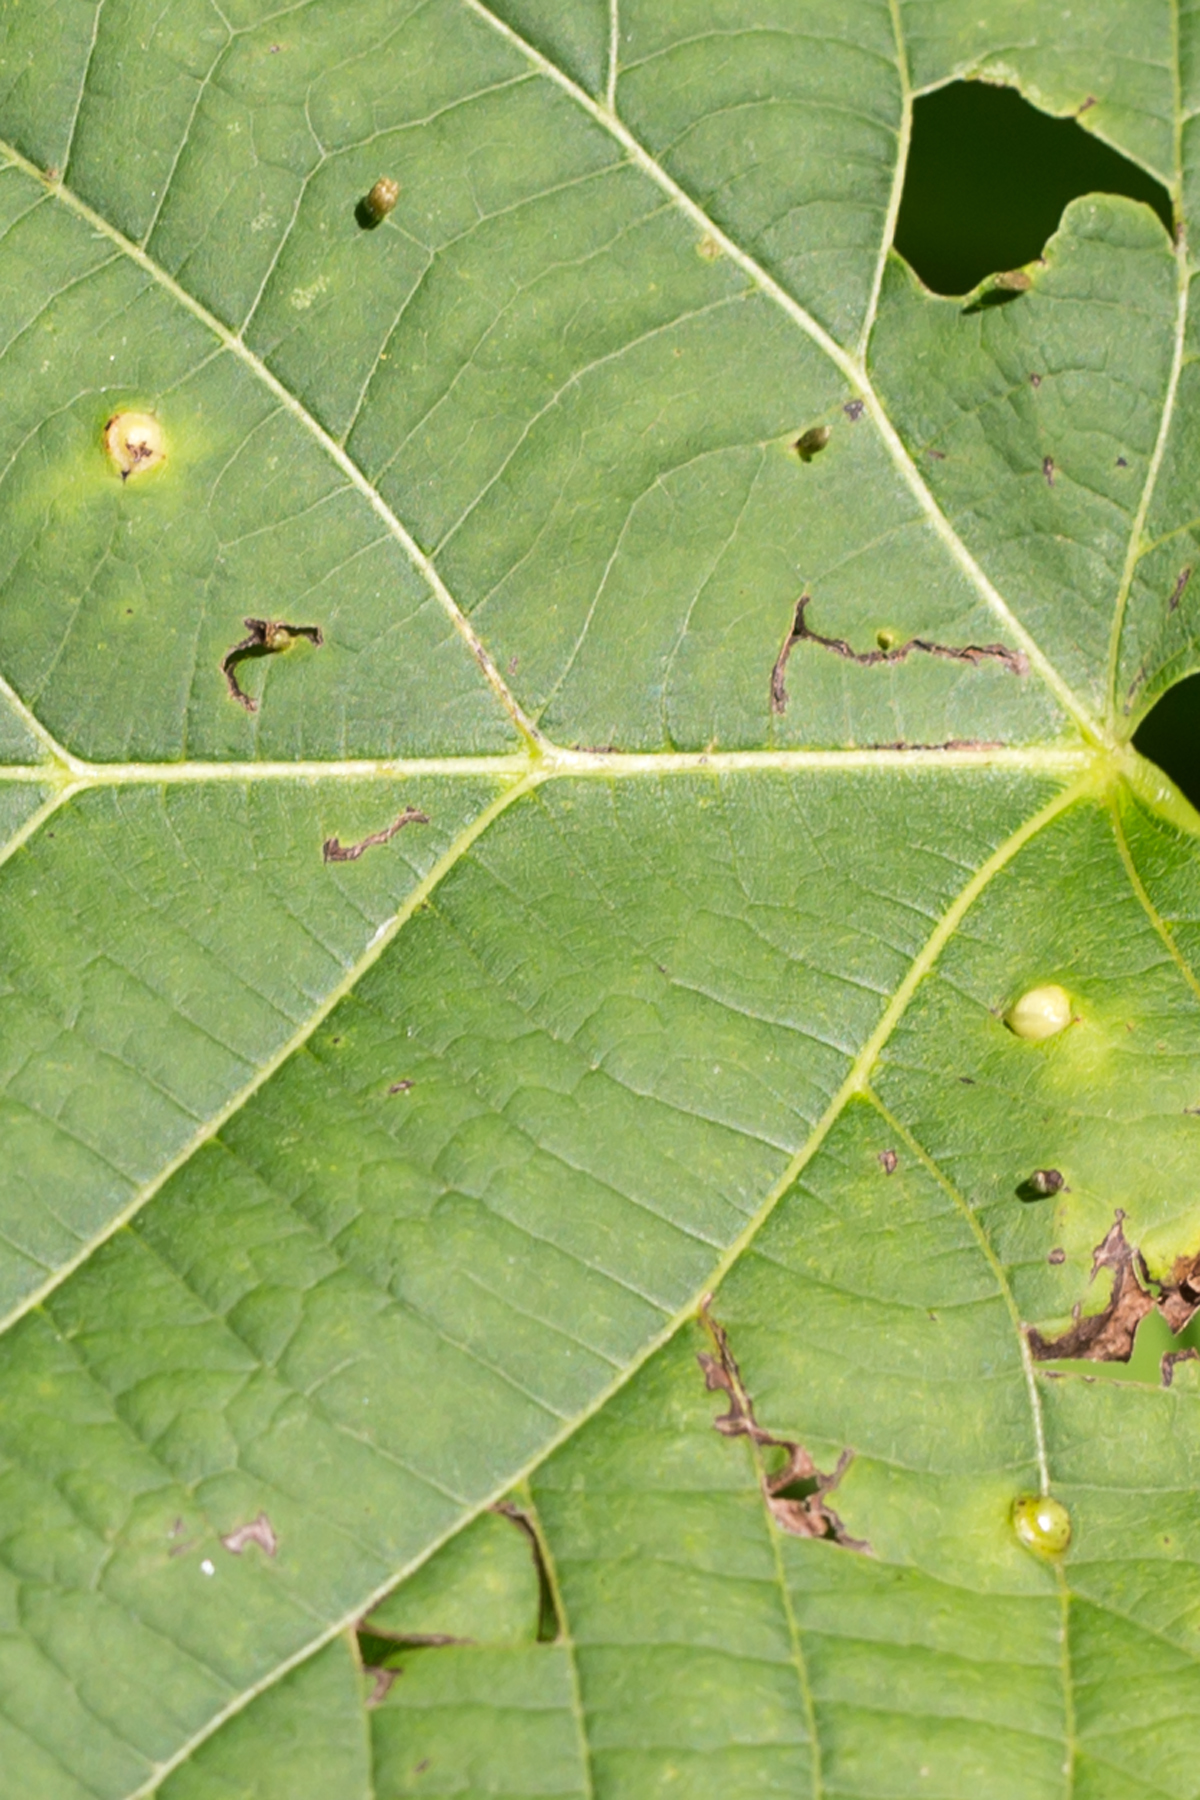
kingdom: Animalia
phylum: Arthropoda
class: Insecta
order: Diptera
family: Cecidomyiidae
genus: Contarinia
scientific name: Contarinia verrucicola
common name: Linden wart gall midge
